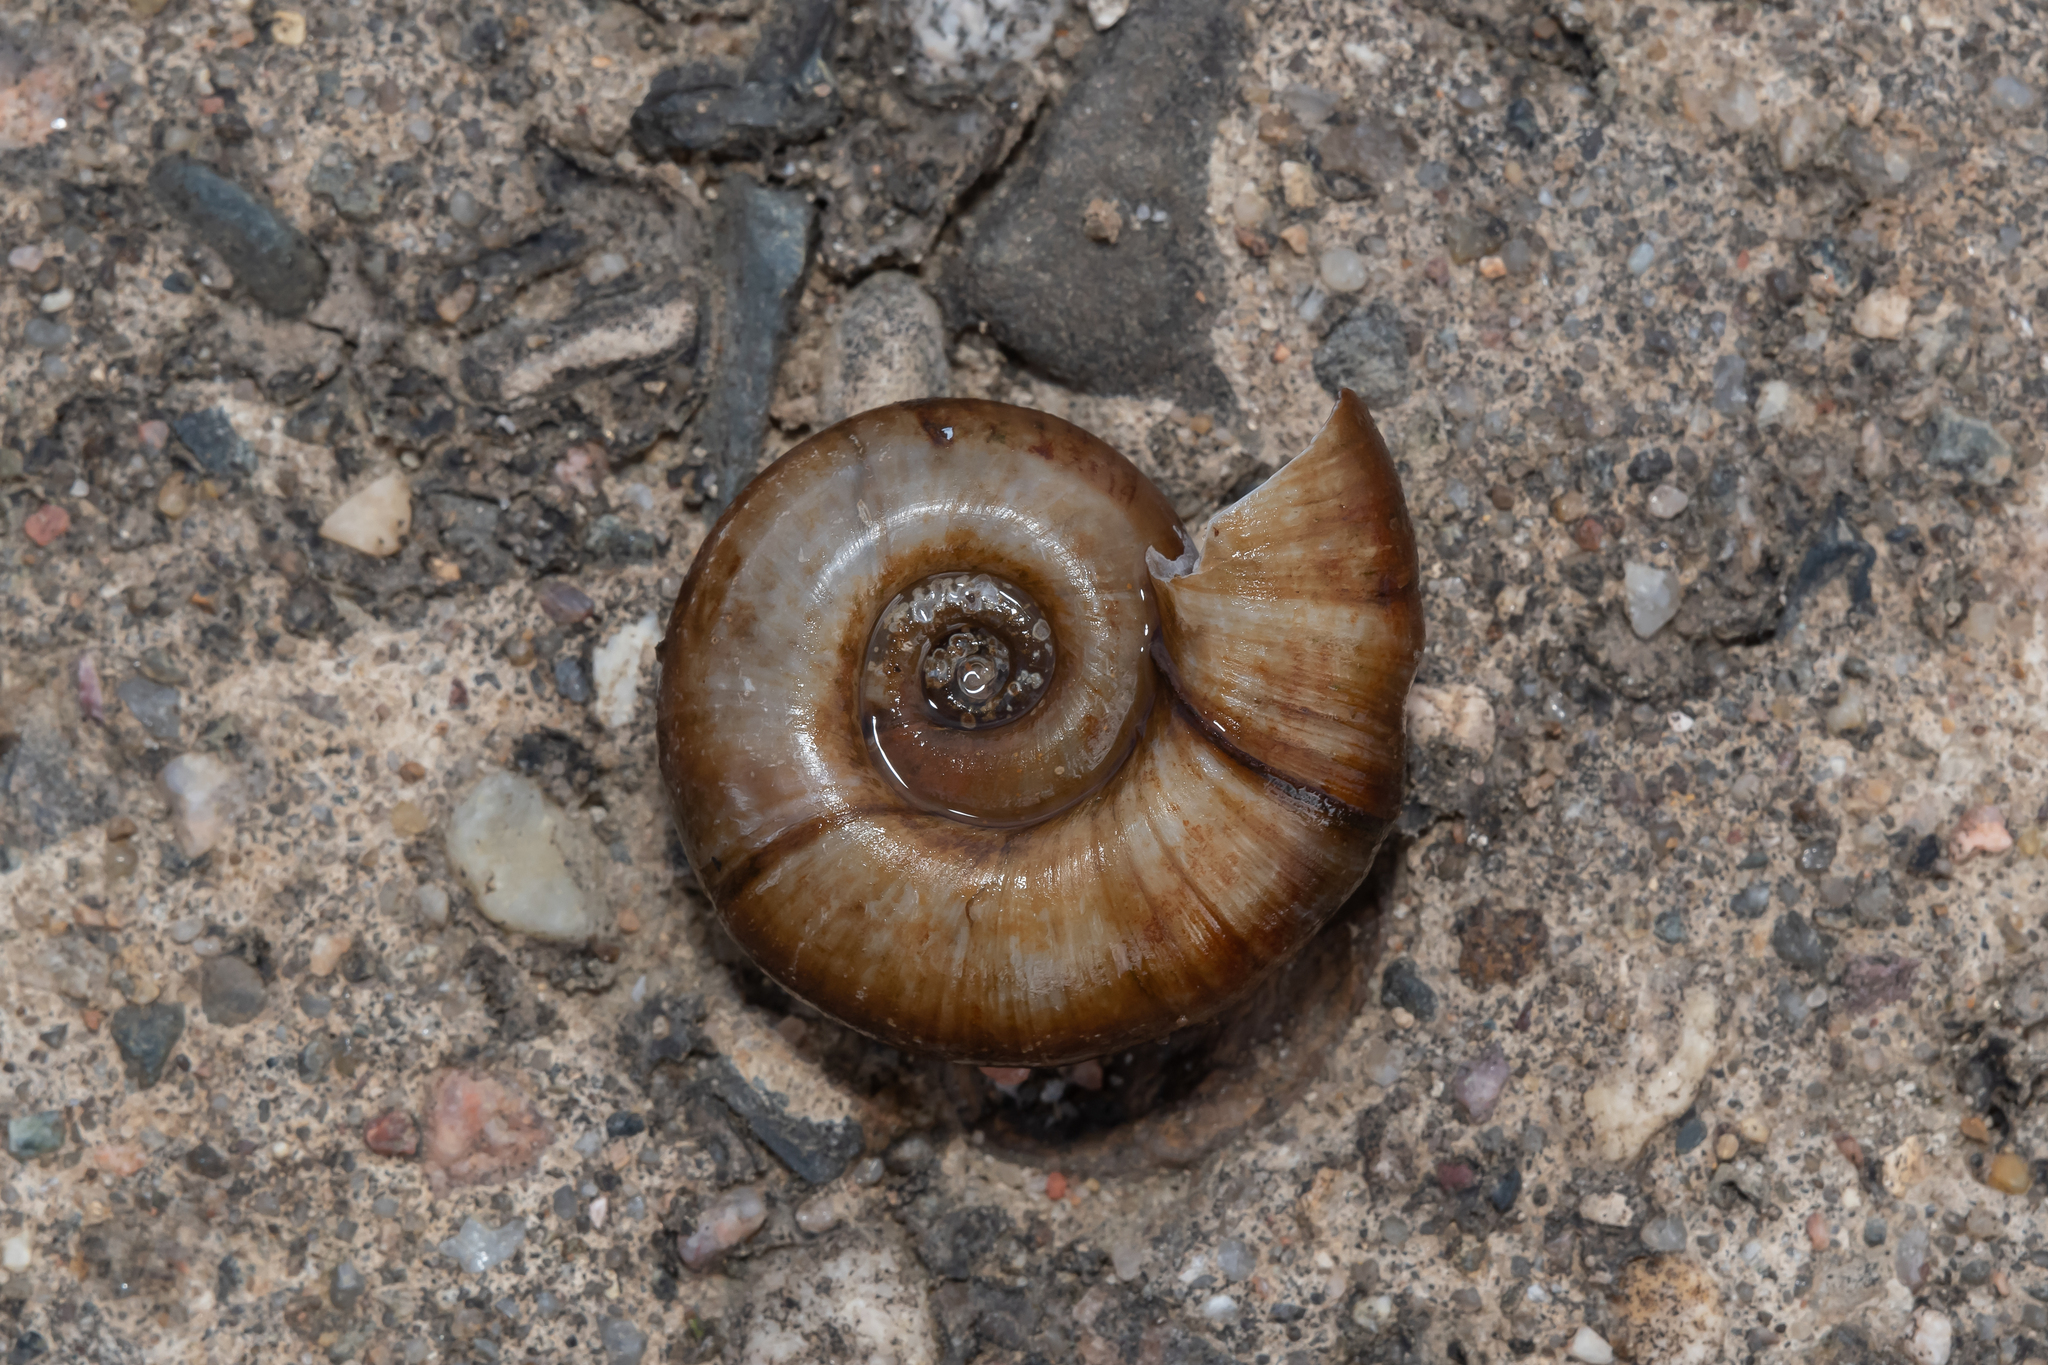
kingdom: Animalia
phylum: Mollusca
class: Gastropoda
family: Planorbidae
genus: Planorbarius
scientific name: Planorbarius corneus
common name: Great ramshorn
